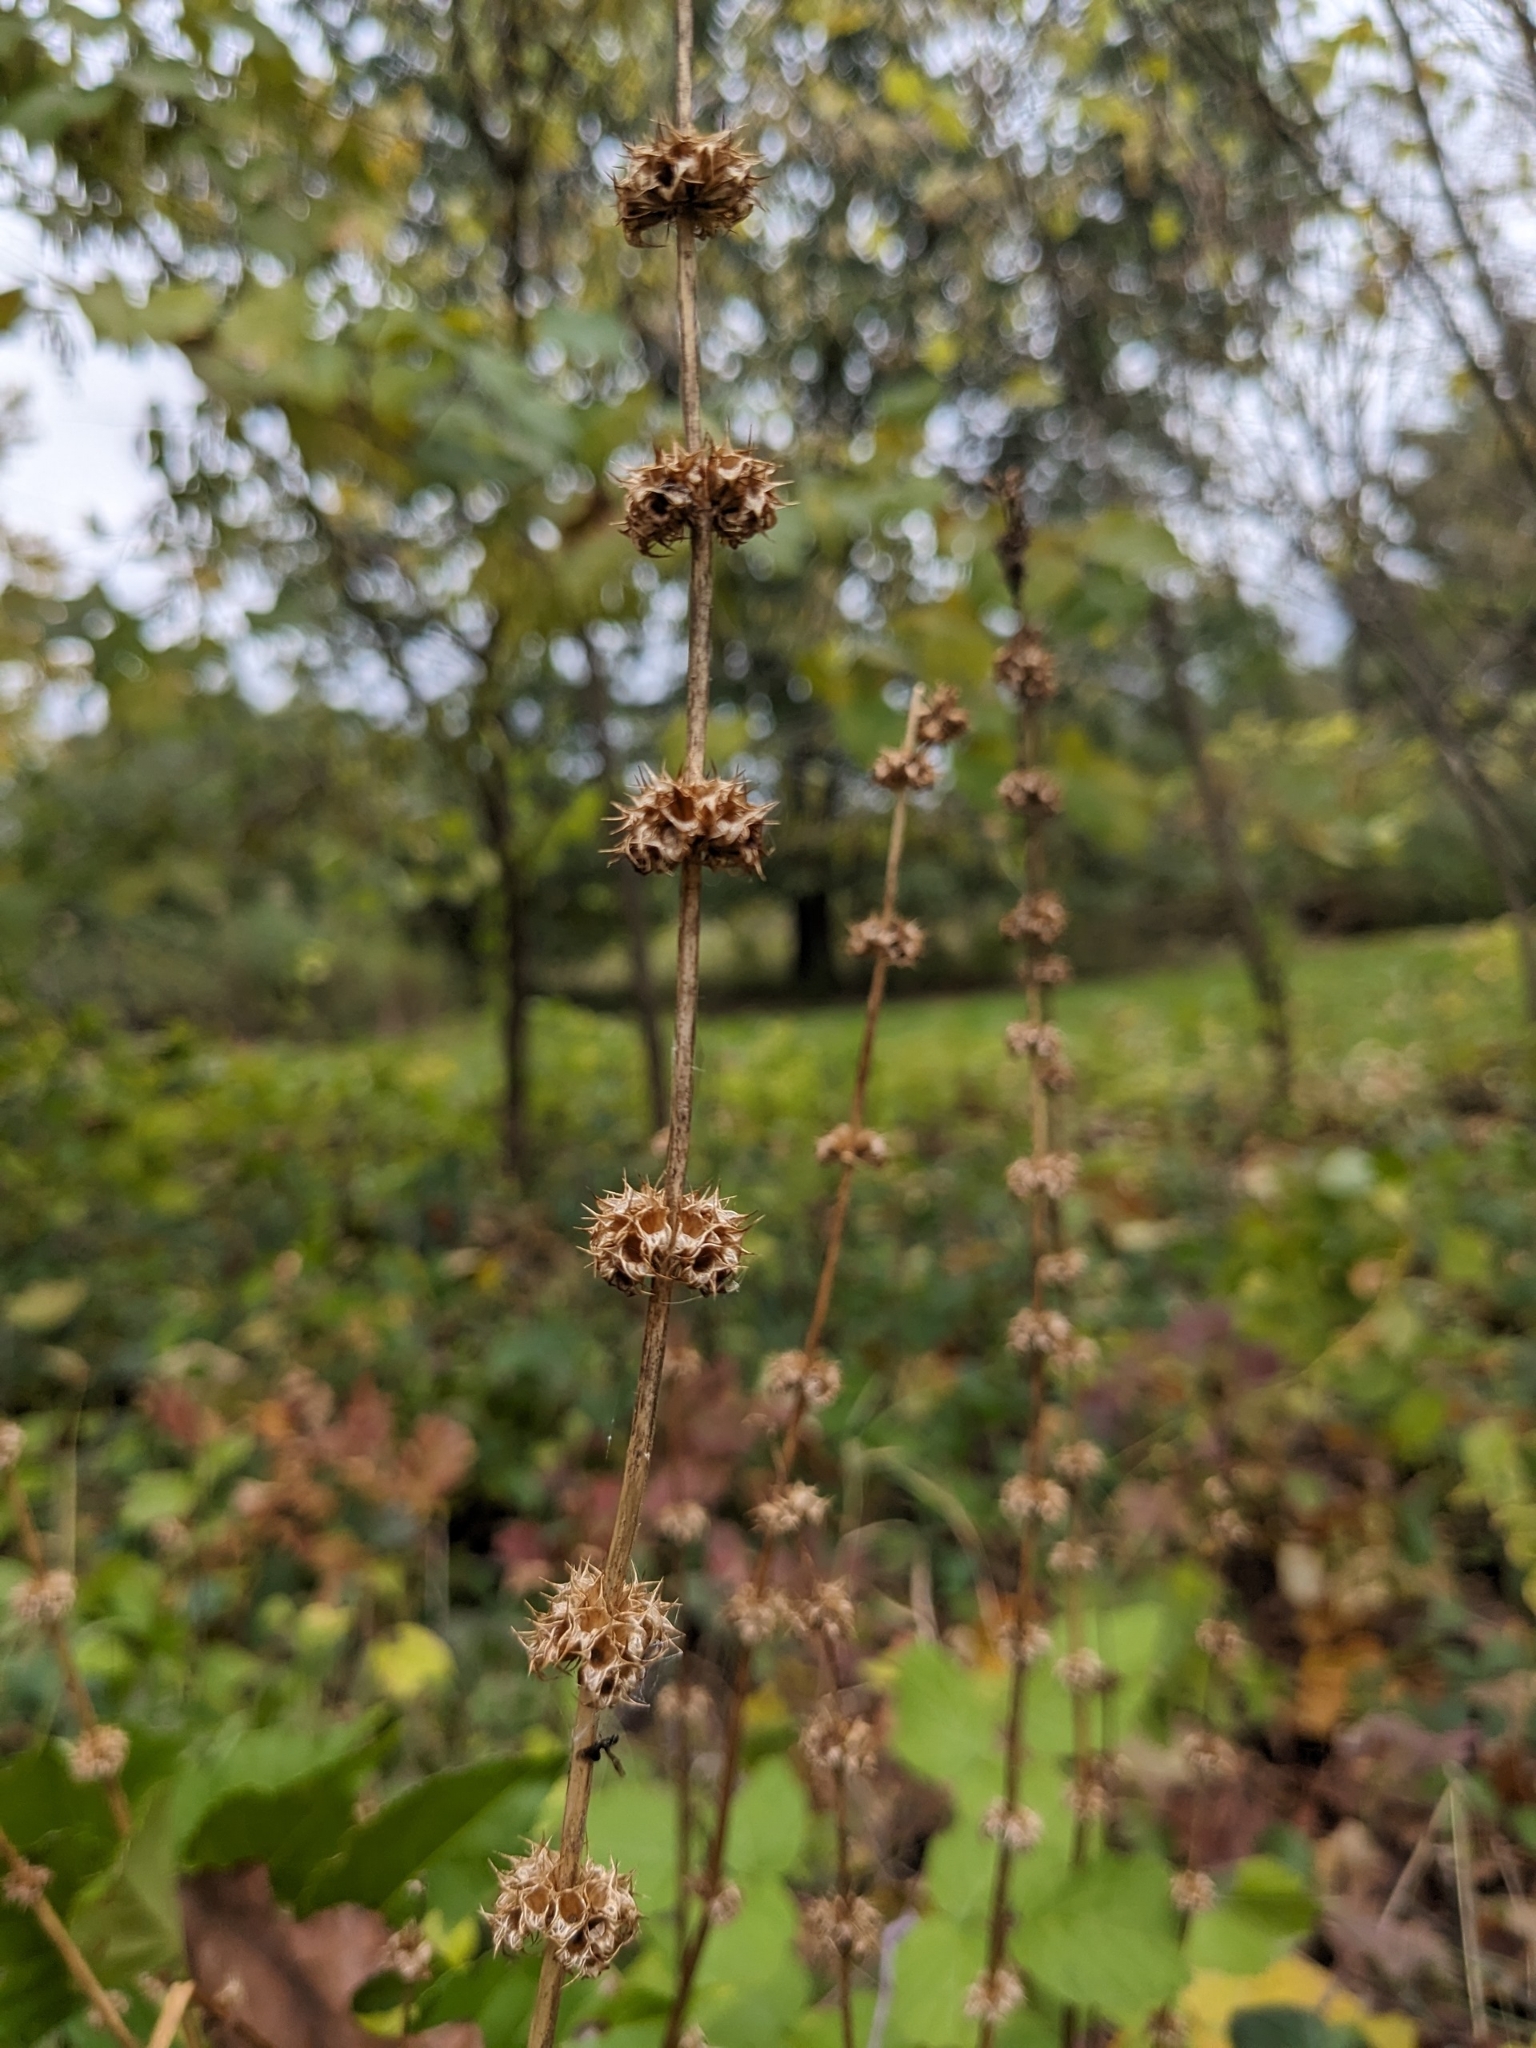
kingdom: Plantae
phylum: Tracheophyta
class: Magnoliopsida
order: Lamiales
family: Lamiaceae
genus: Leonurus
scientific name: Leonurus cardiaca
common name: Motherwort
